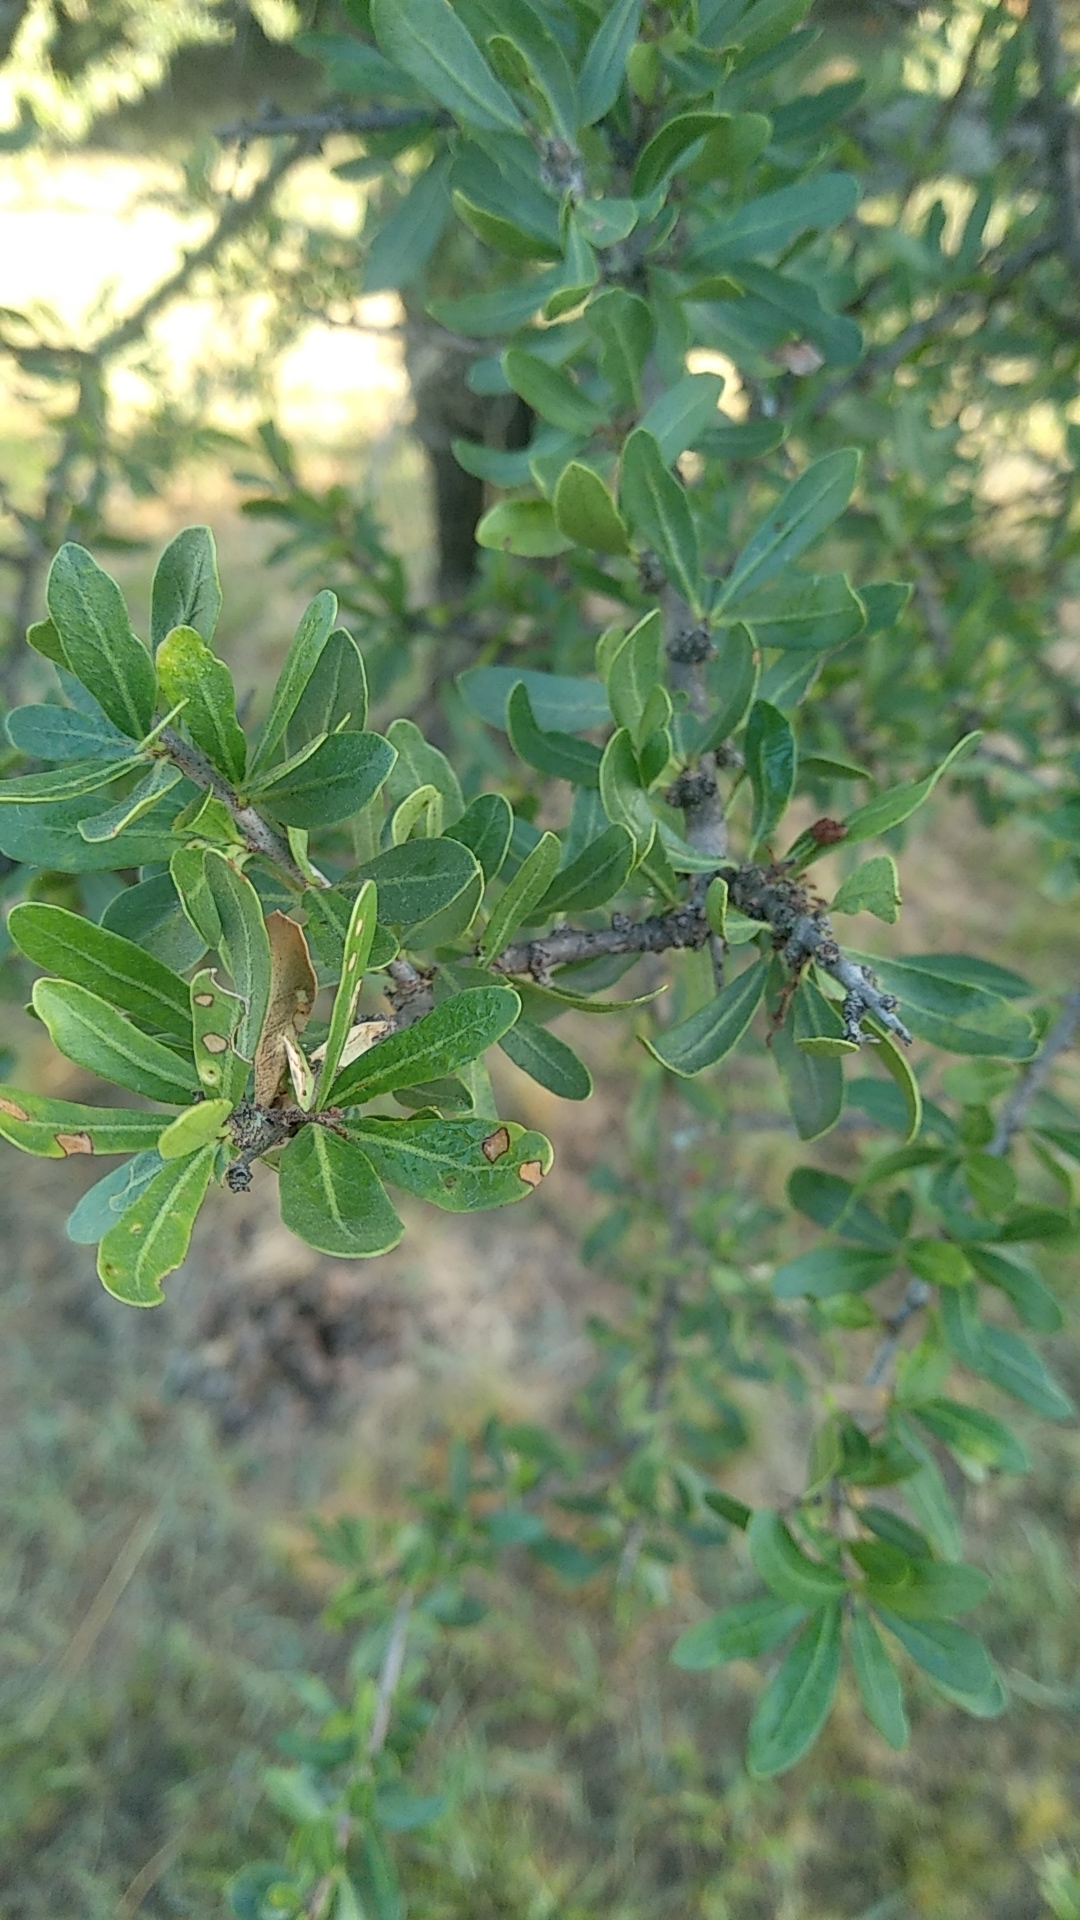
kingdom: Plantae
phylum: Tracheophyta
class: Magnoliopsida
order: Sapindales
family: Anacardiaceae
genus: Schinus
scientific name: Schinus fasciculata
